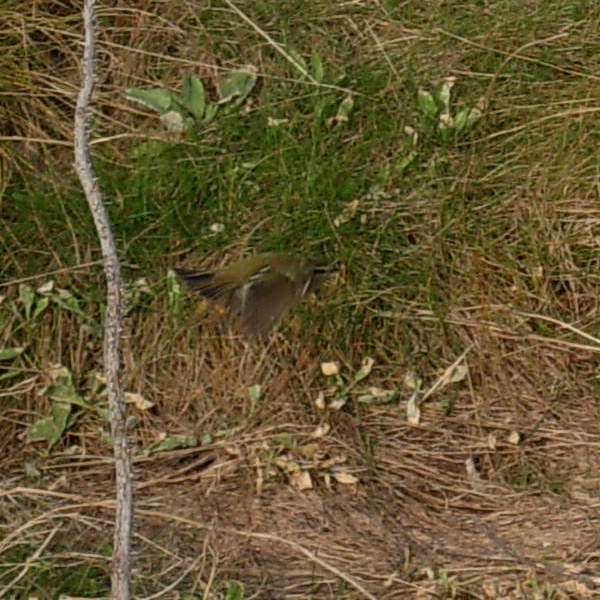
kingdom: Animalia
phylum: Chordata
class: Aves
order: Passeriformes
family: Phylloscopidae
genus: Phylloscopus
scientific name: Phylloscopus inornatus
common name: Yellow-browed warbler
